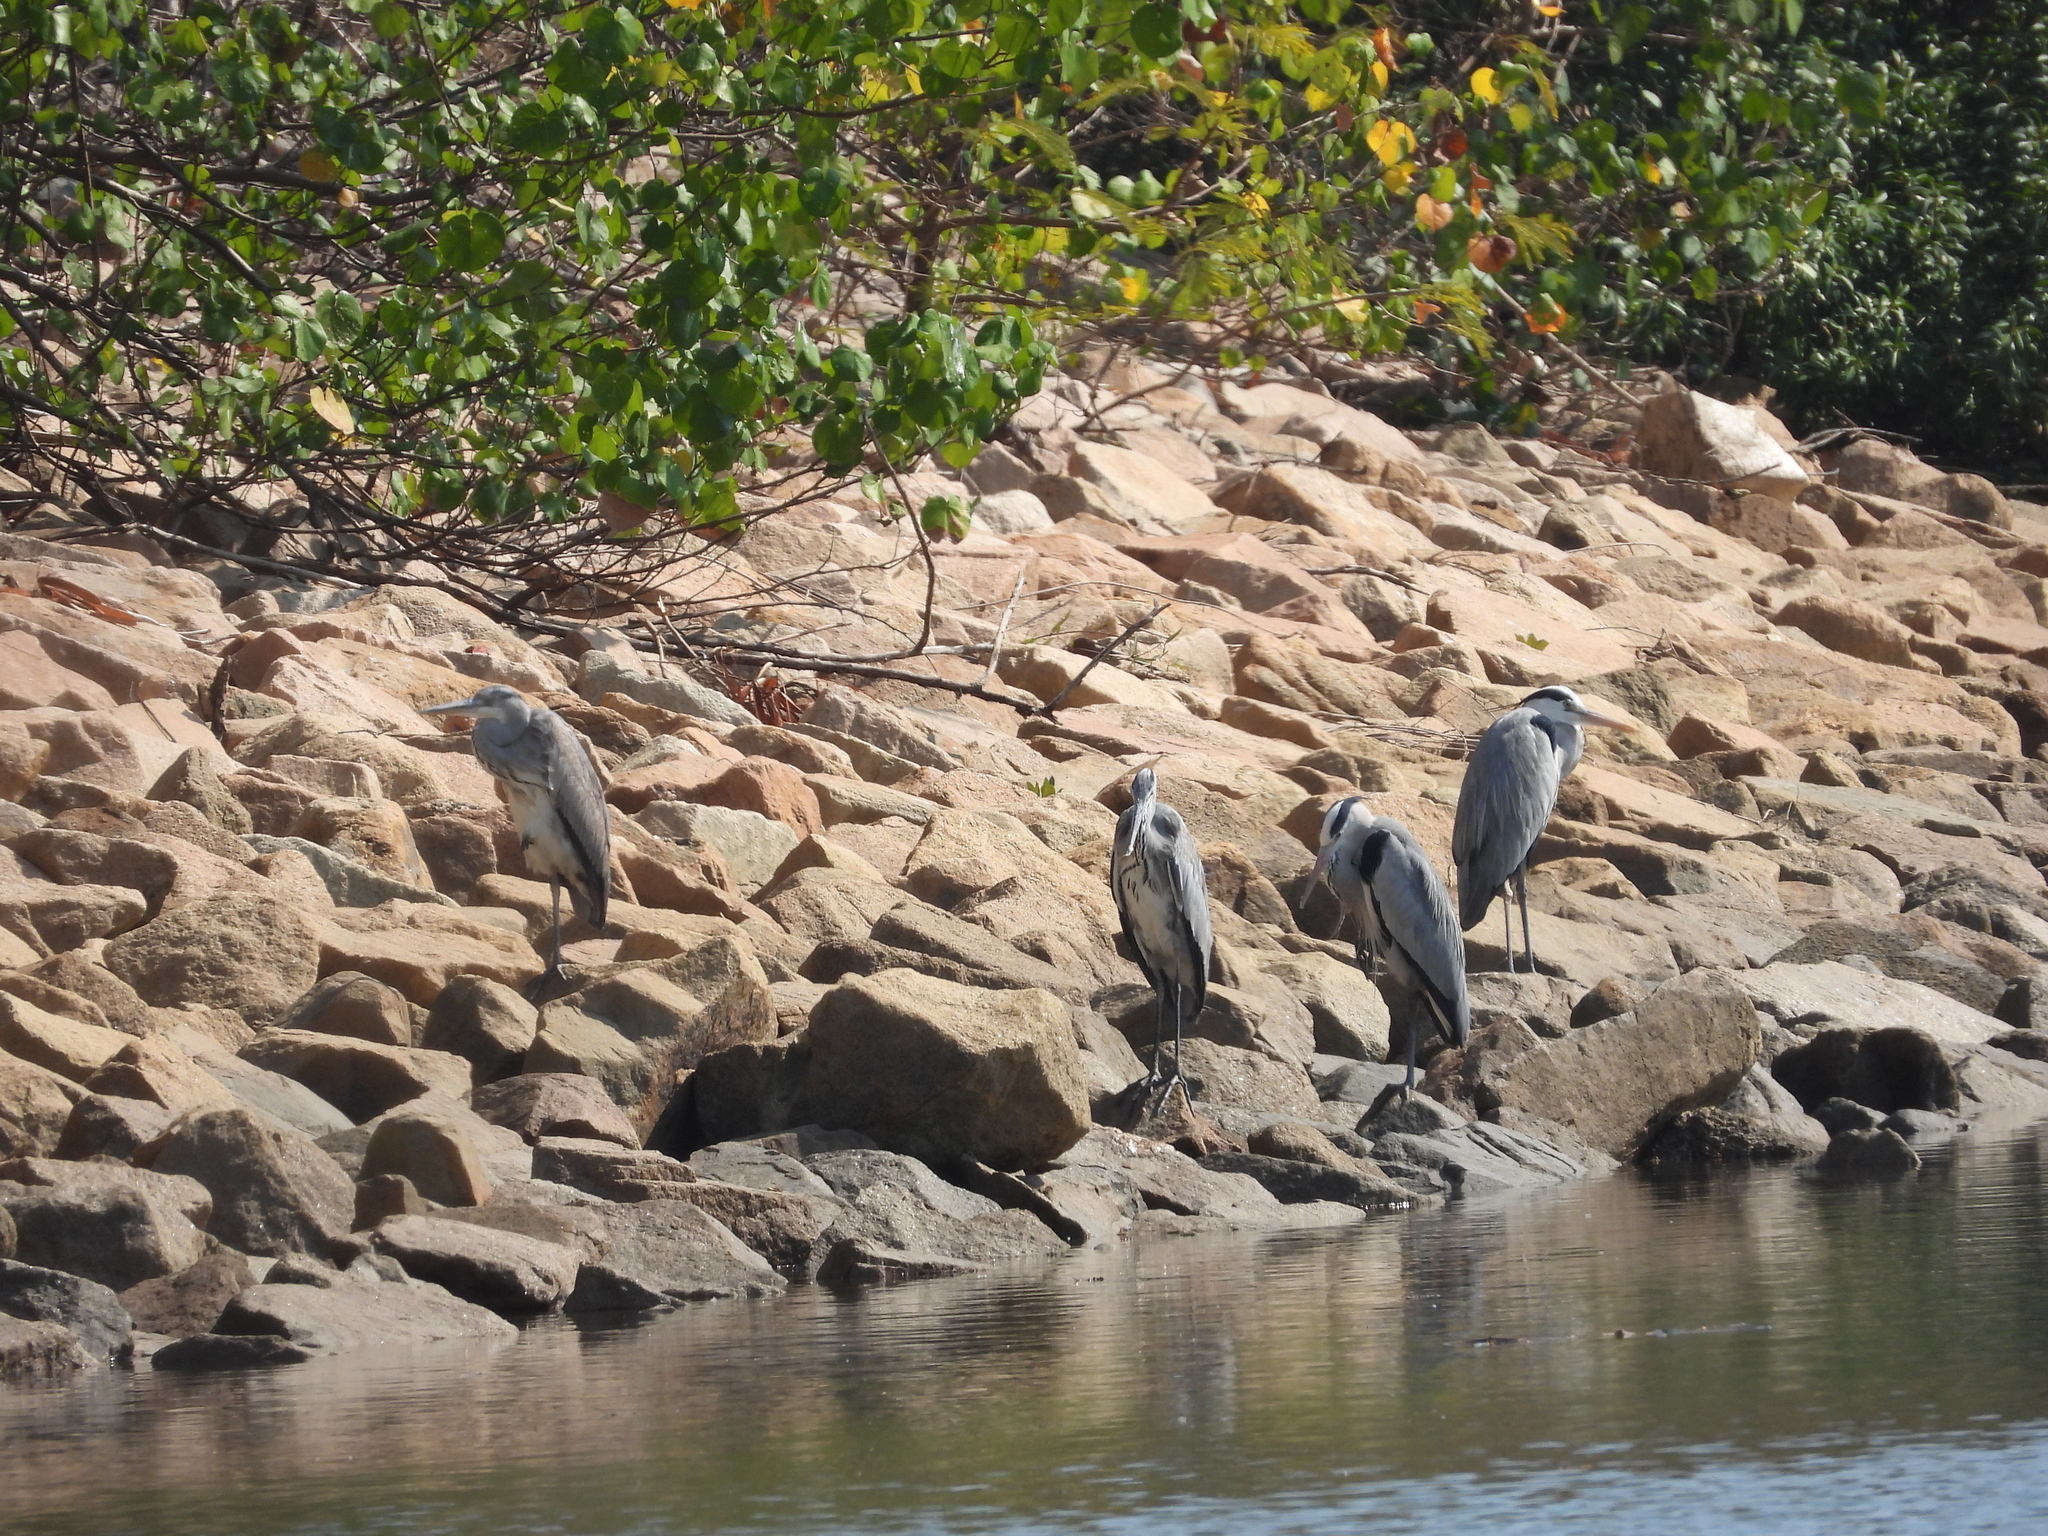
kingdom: Animalia
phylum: Chordata
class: Aves
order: Pelecaniformes
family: Ardeidae
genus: Ardea
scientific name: Ardea cinerea
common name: Grey heron
